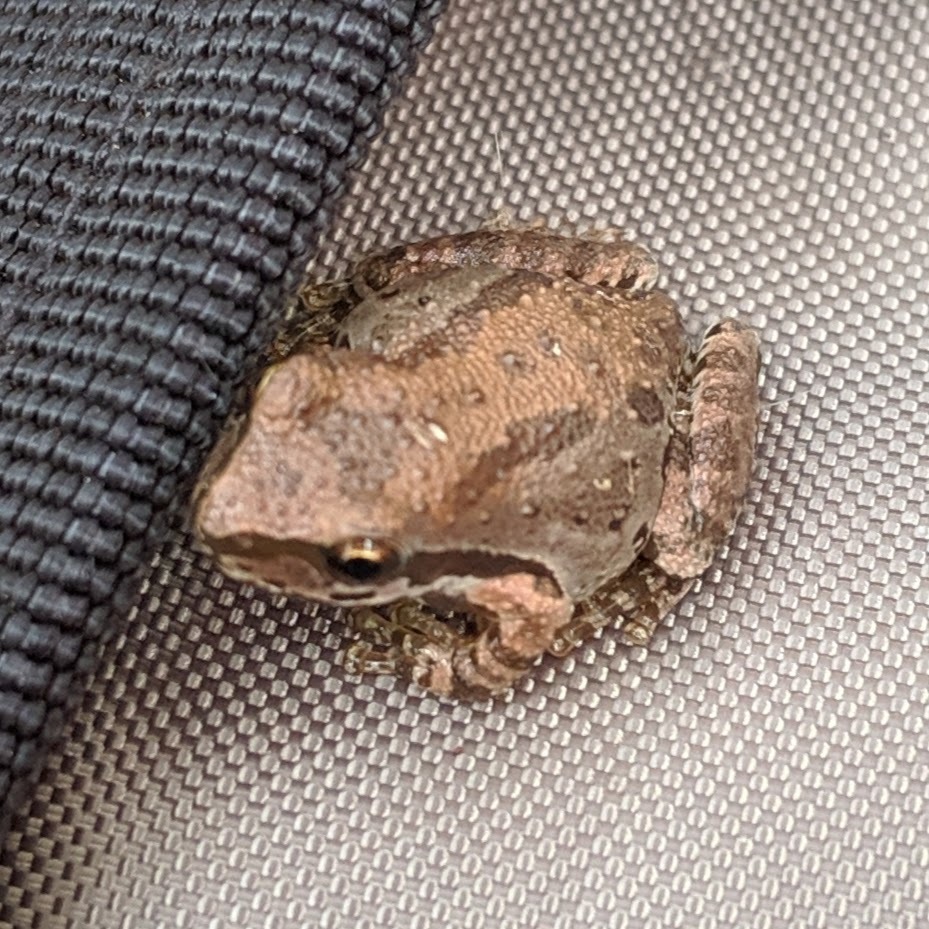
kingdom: Animalia
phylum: Chordata
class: Amphibia
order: Anura
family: Hylidae
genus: Pseudacris
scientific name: Pseudacris regilla
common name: Pacific chorus frog
